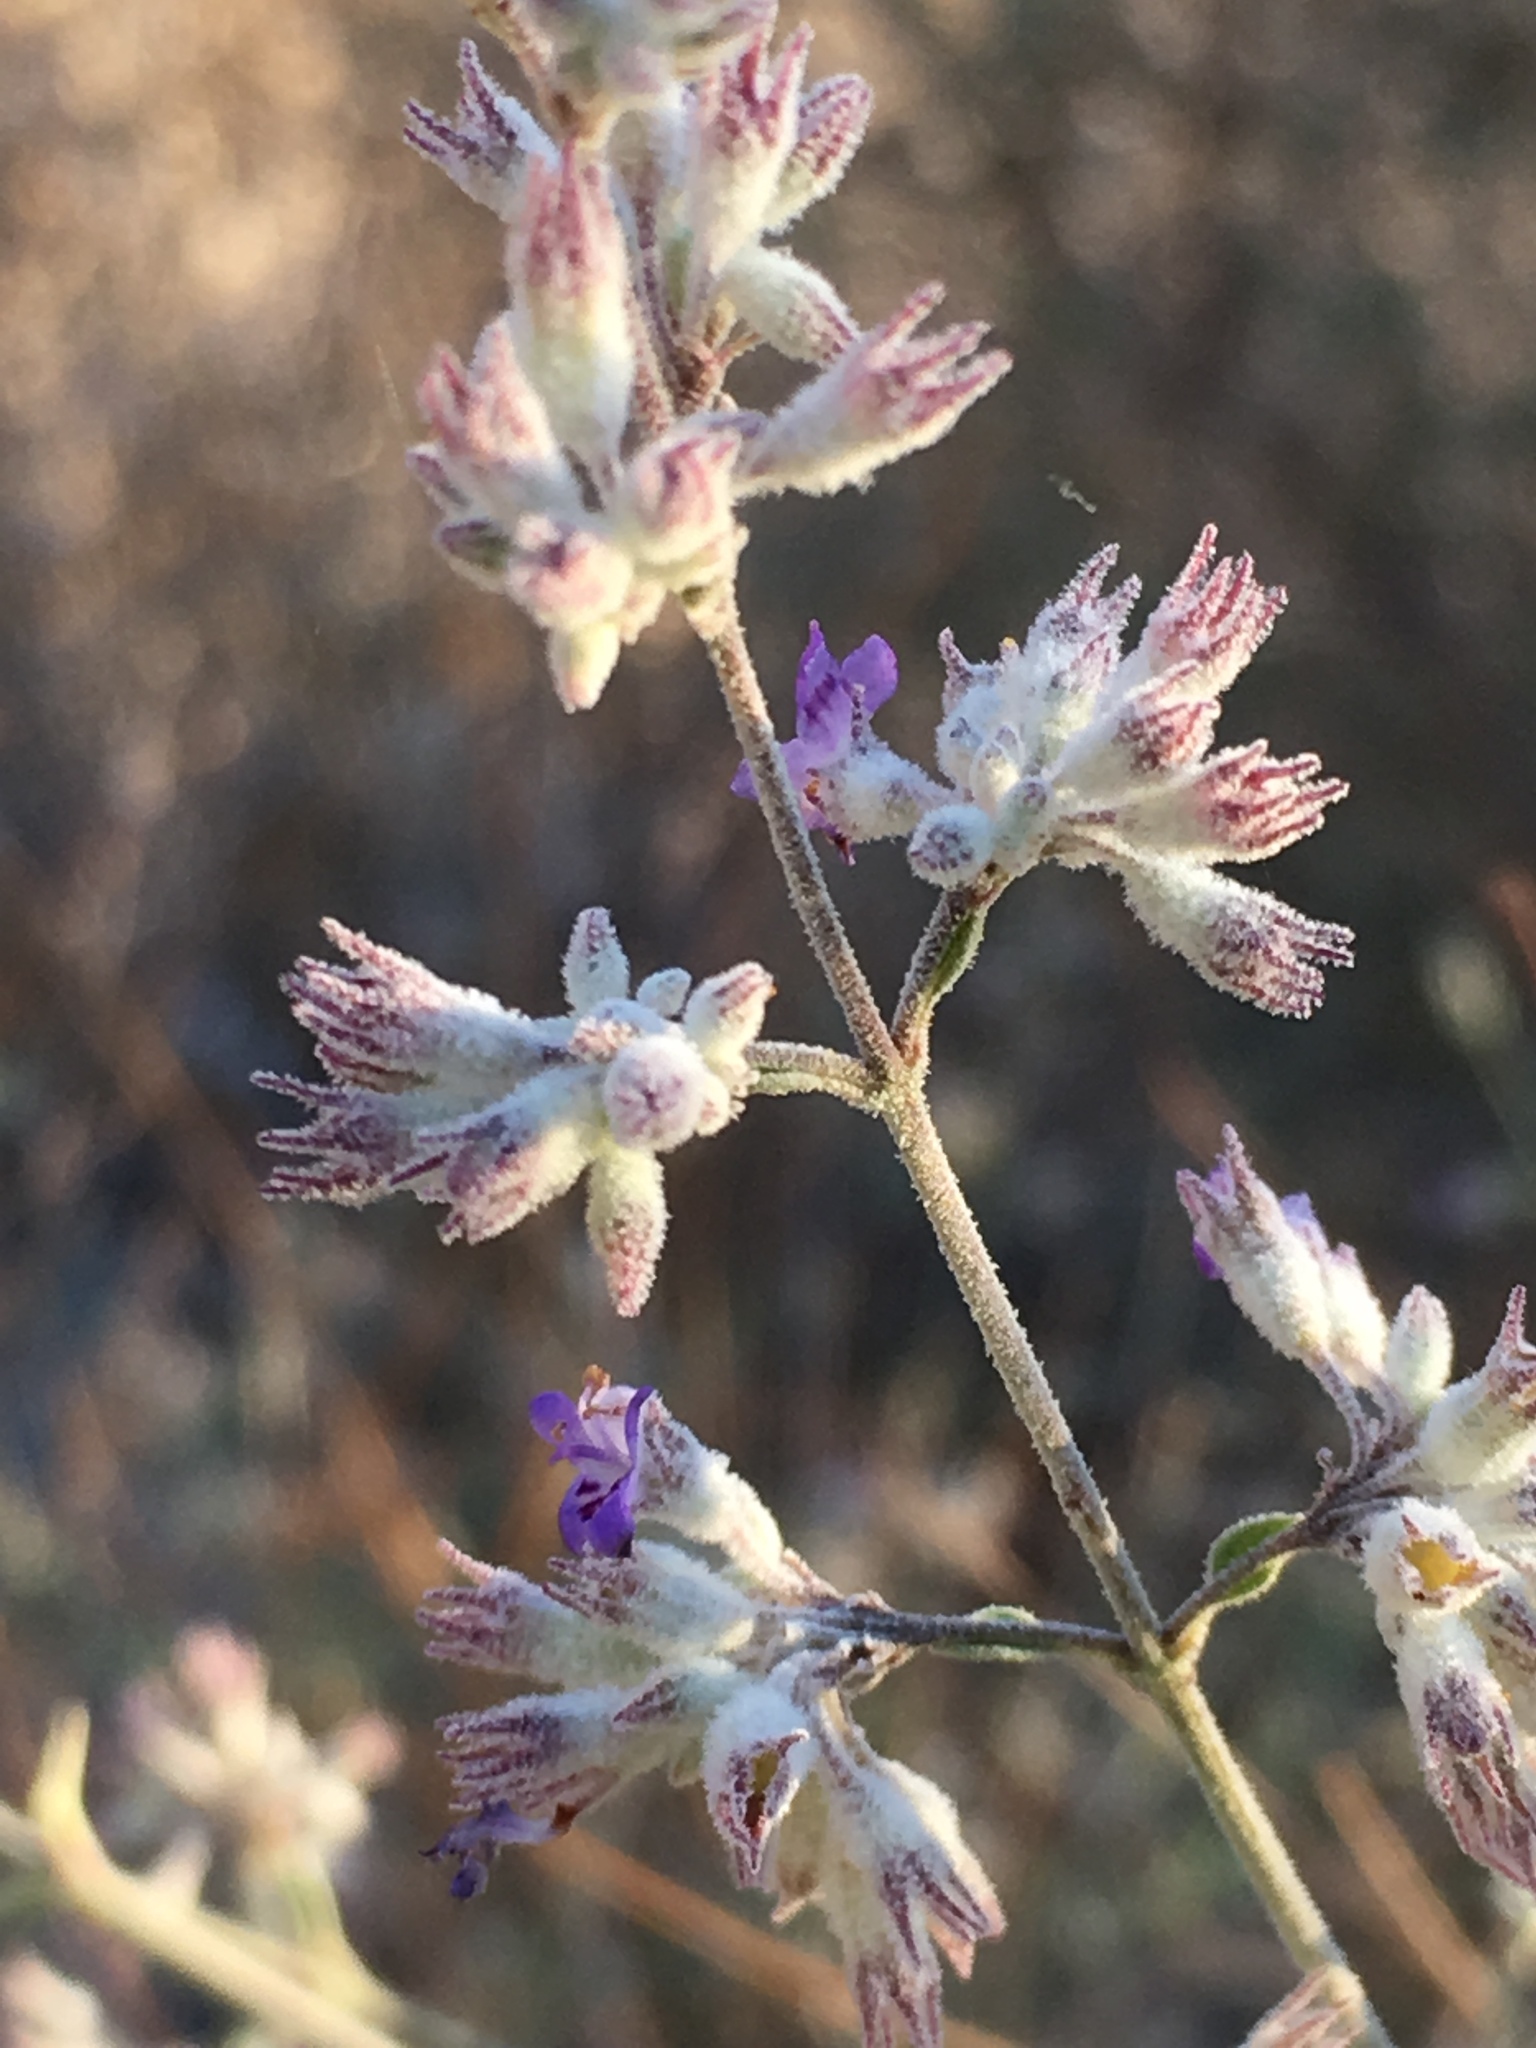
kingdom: Plantae
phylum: Tracheophyta
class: Magnoliopsida
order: Lamiales
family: Lamiaceae
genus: Condea
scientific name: Condea emoryi
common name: Chia
